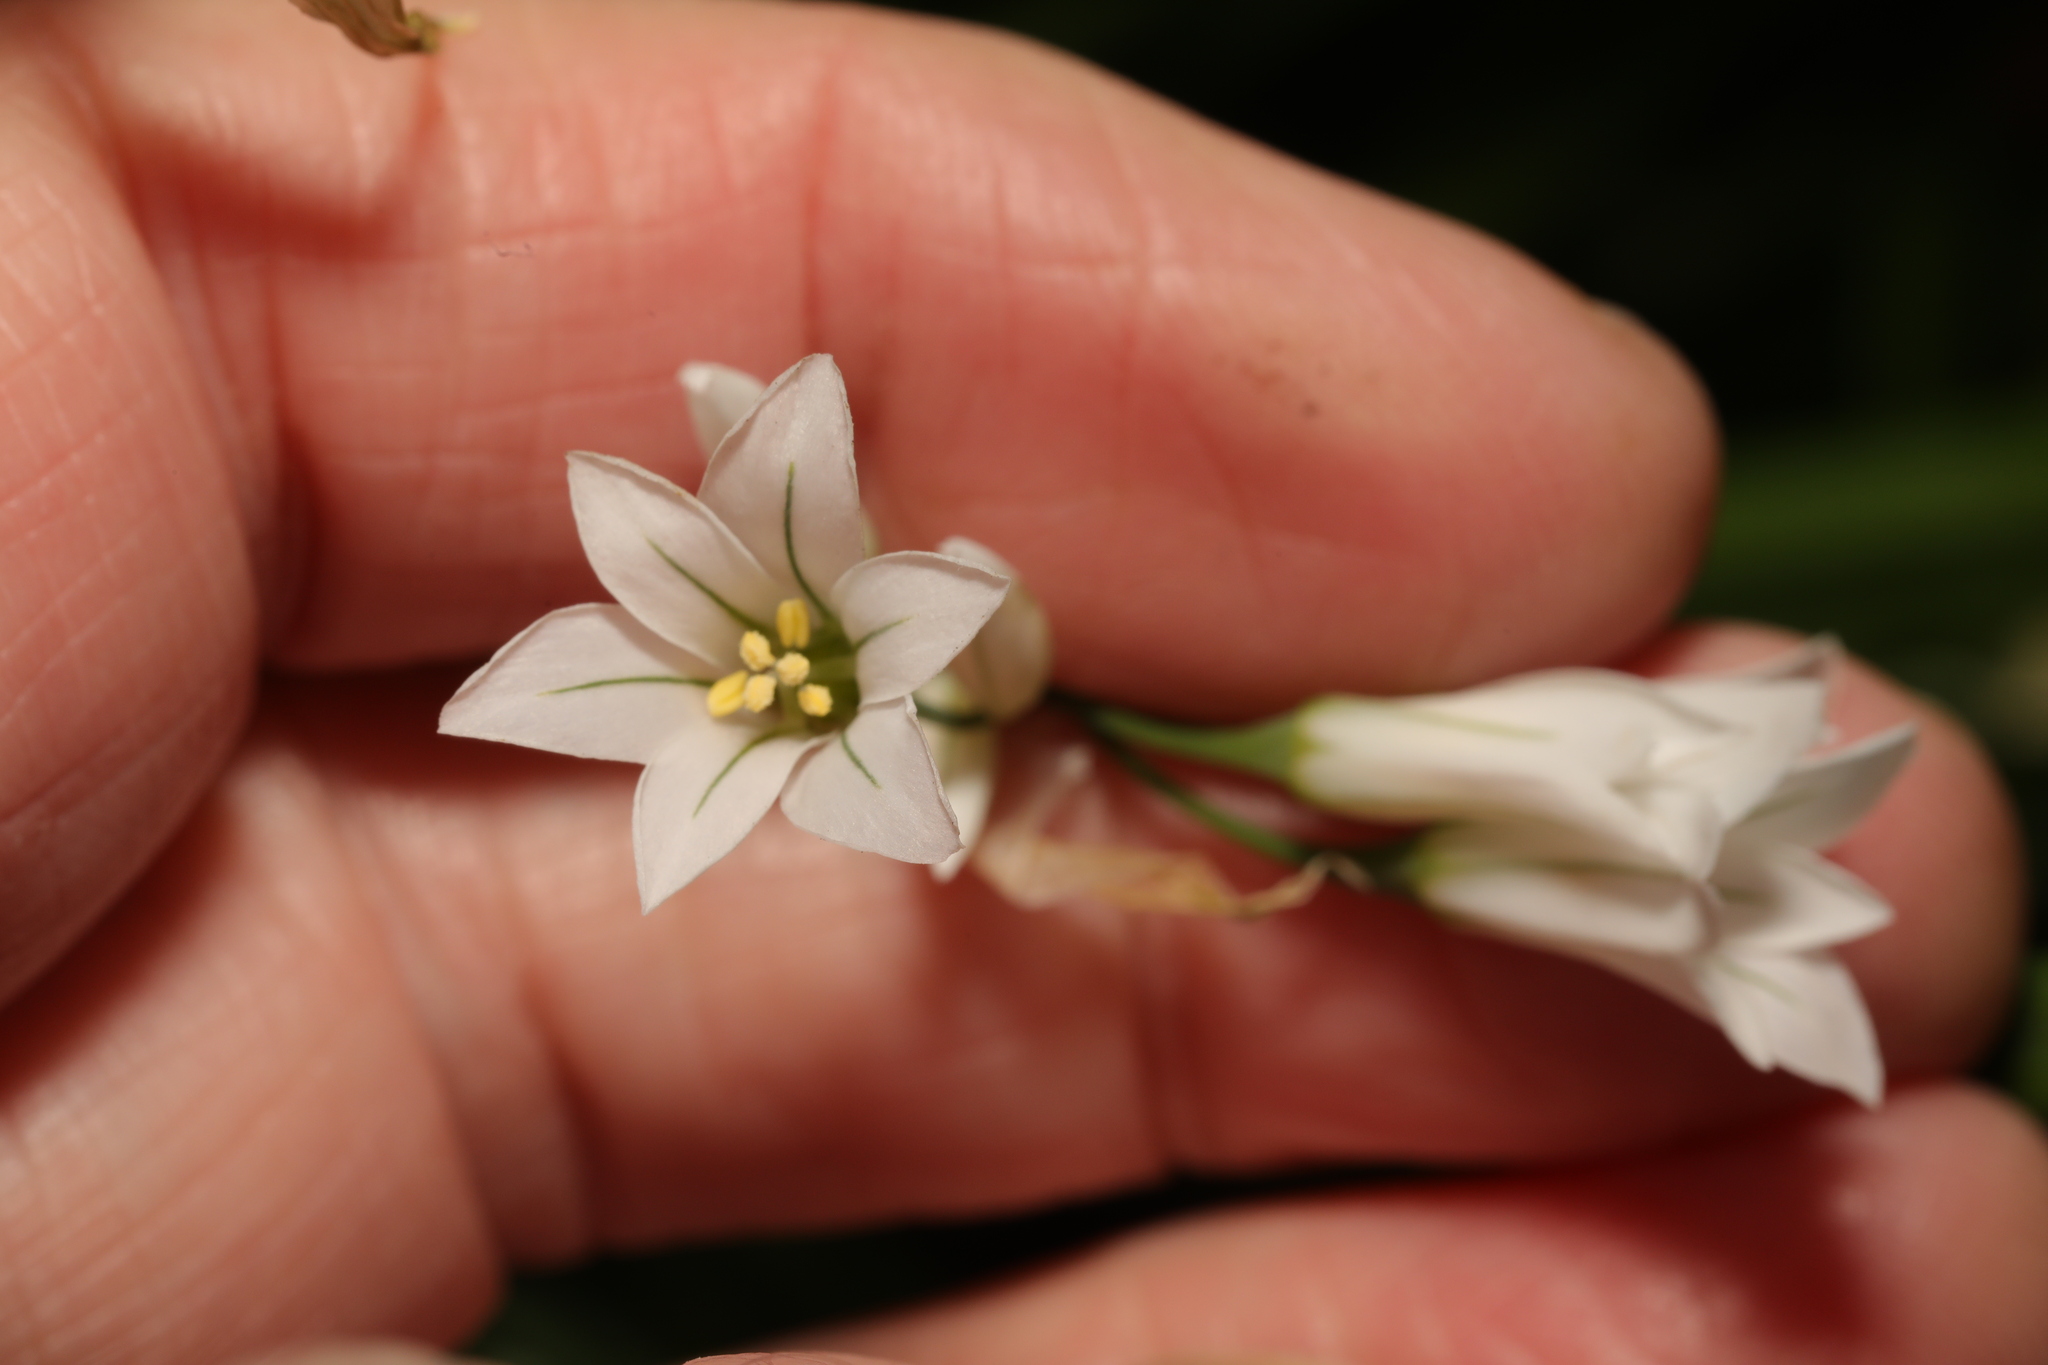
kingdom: Plantae
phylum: Tracheophyta
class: Liliopsida
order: Asparagales
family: Amaryllidaceae
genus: Allium
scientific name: Allium triquetrum
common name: Three-cornered garlic
